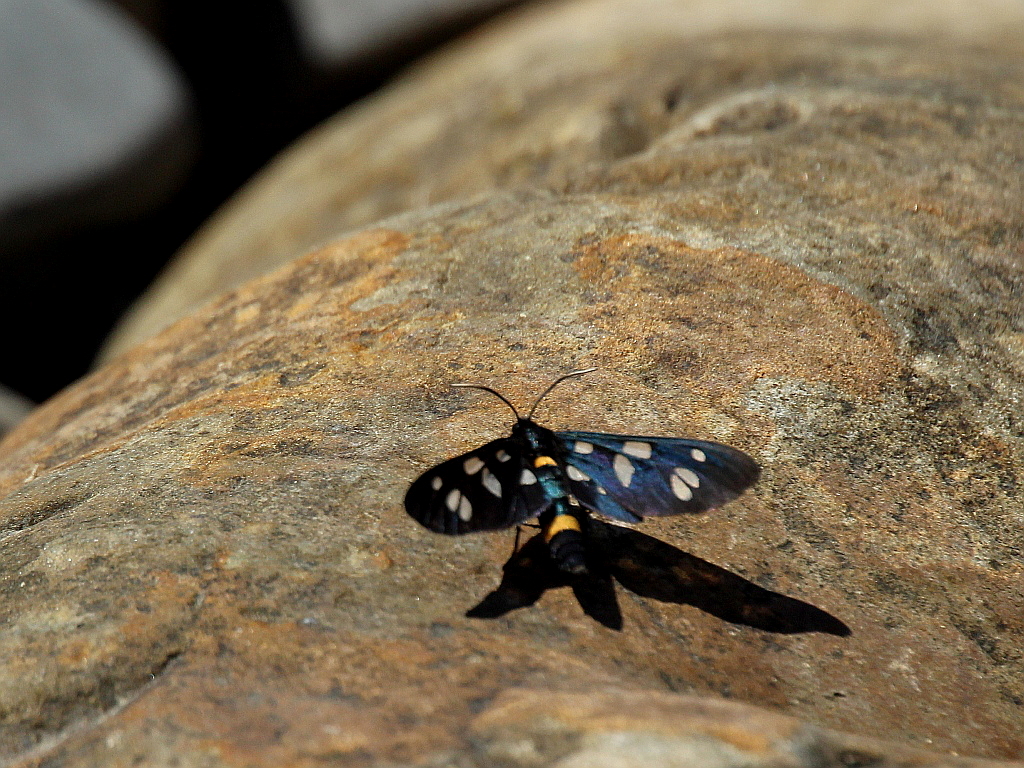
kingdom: Animalia
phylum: Arthropoda
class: Insecta
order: Lepidoptera
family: Erebidae
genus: Amata
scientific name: Amata nigricornis
